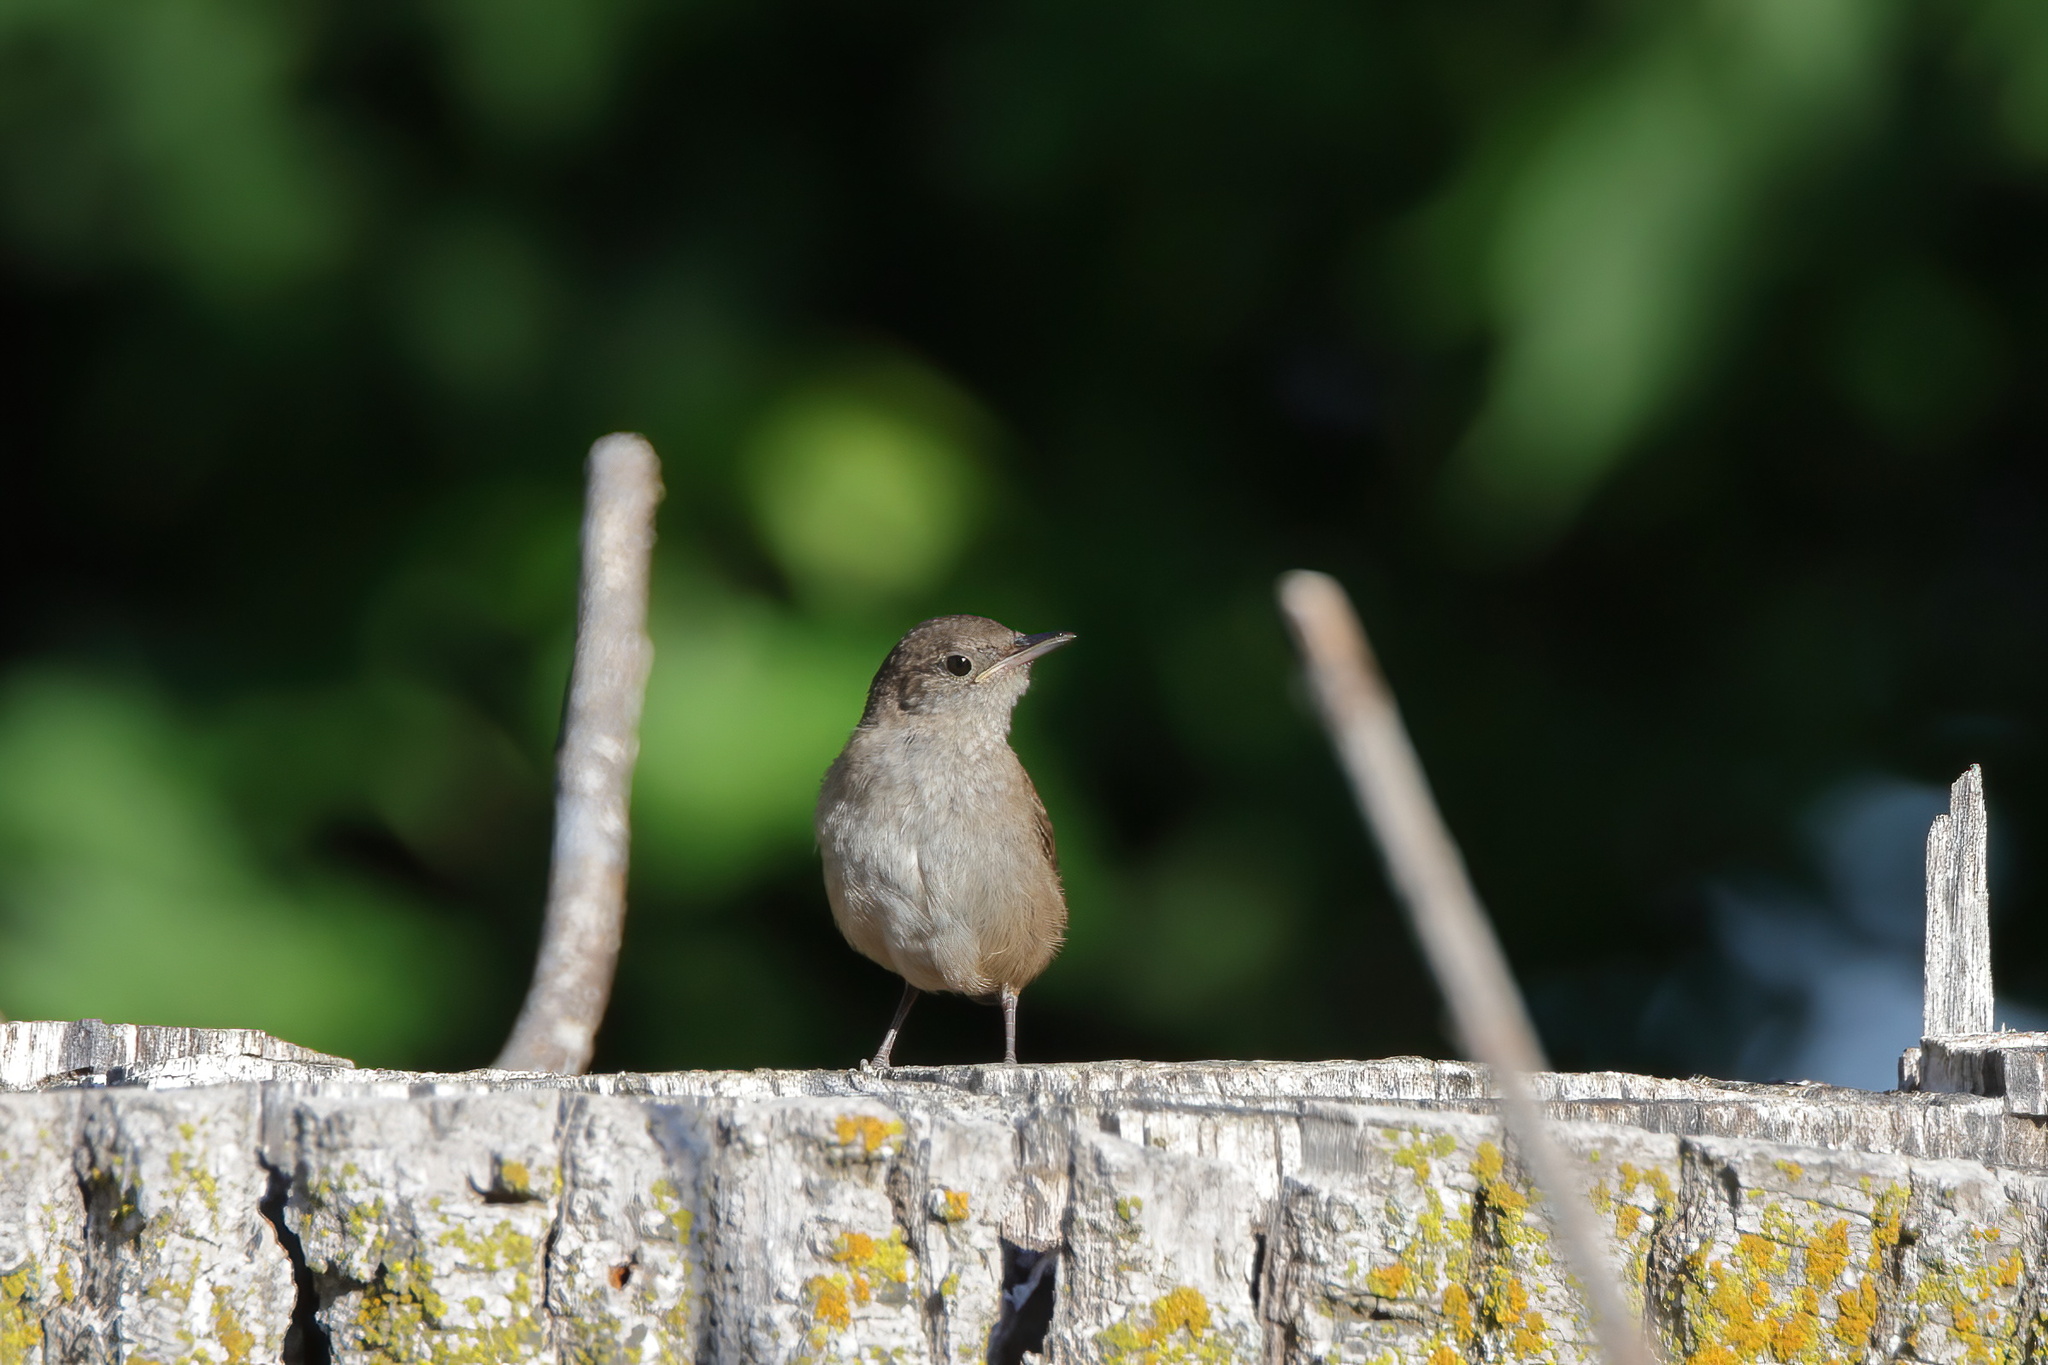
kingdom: Animalia
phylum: Chordata
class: Aves
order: Passeriformes
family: Troglodytidae
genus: Troglodytes
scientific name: Troglodytes aedon
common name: House wren
